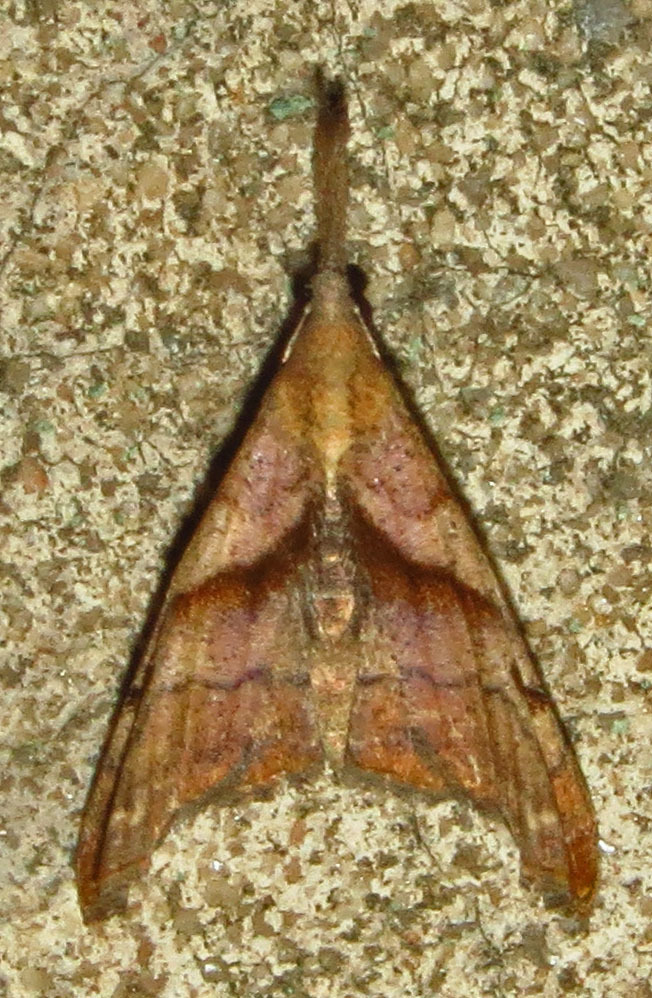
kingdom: Animalia
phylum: Arthropoda
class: Insecta
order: Lepidoptera
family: Erebidae
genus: Palthis
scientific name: Palthis angulalis
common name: Dark-spotted palthis moth
